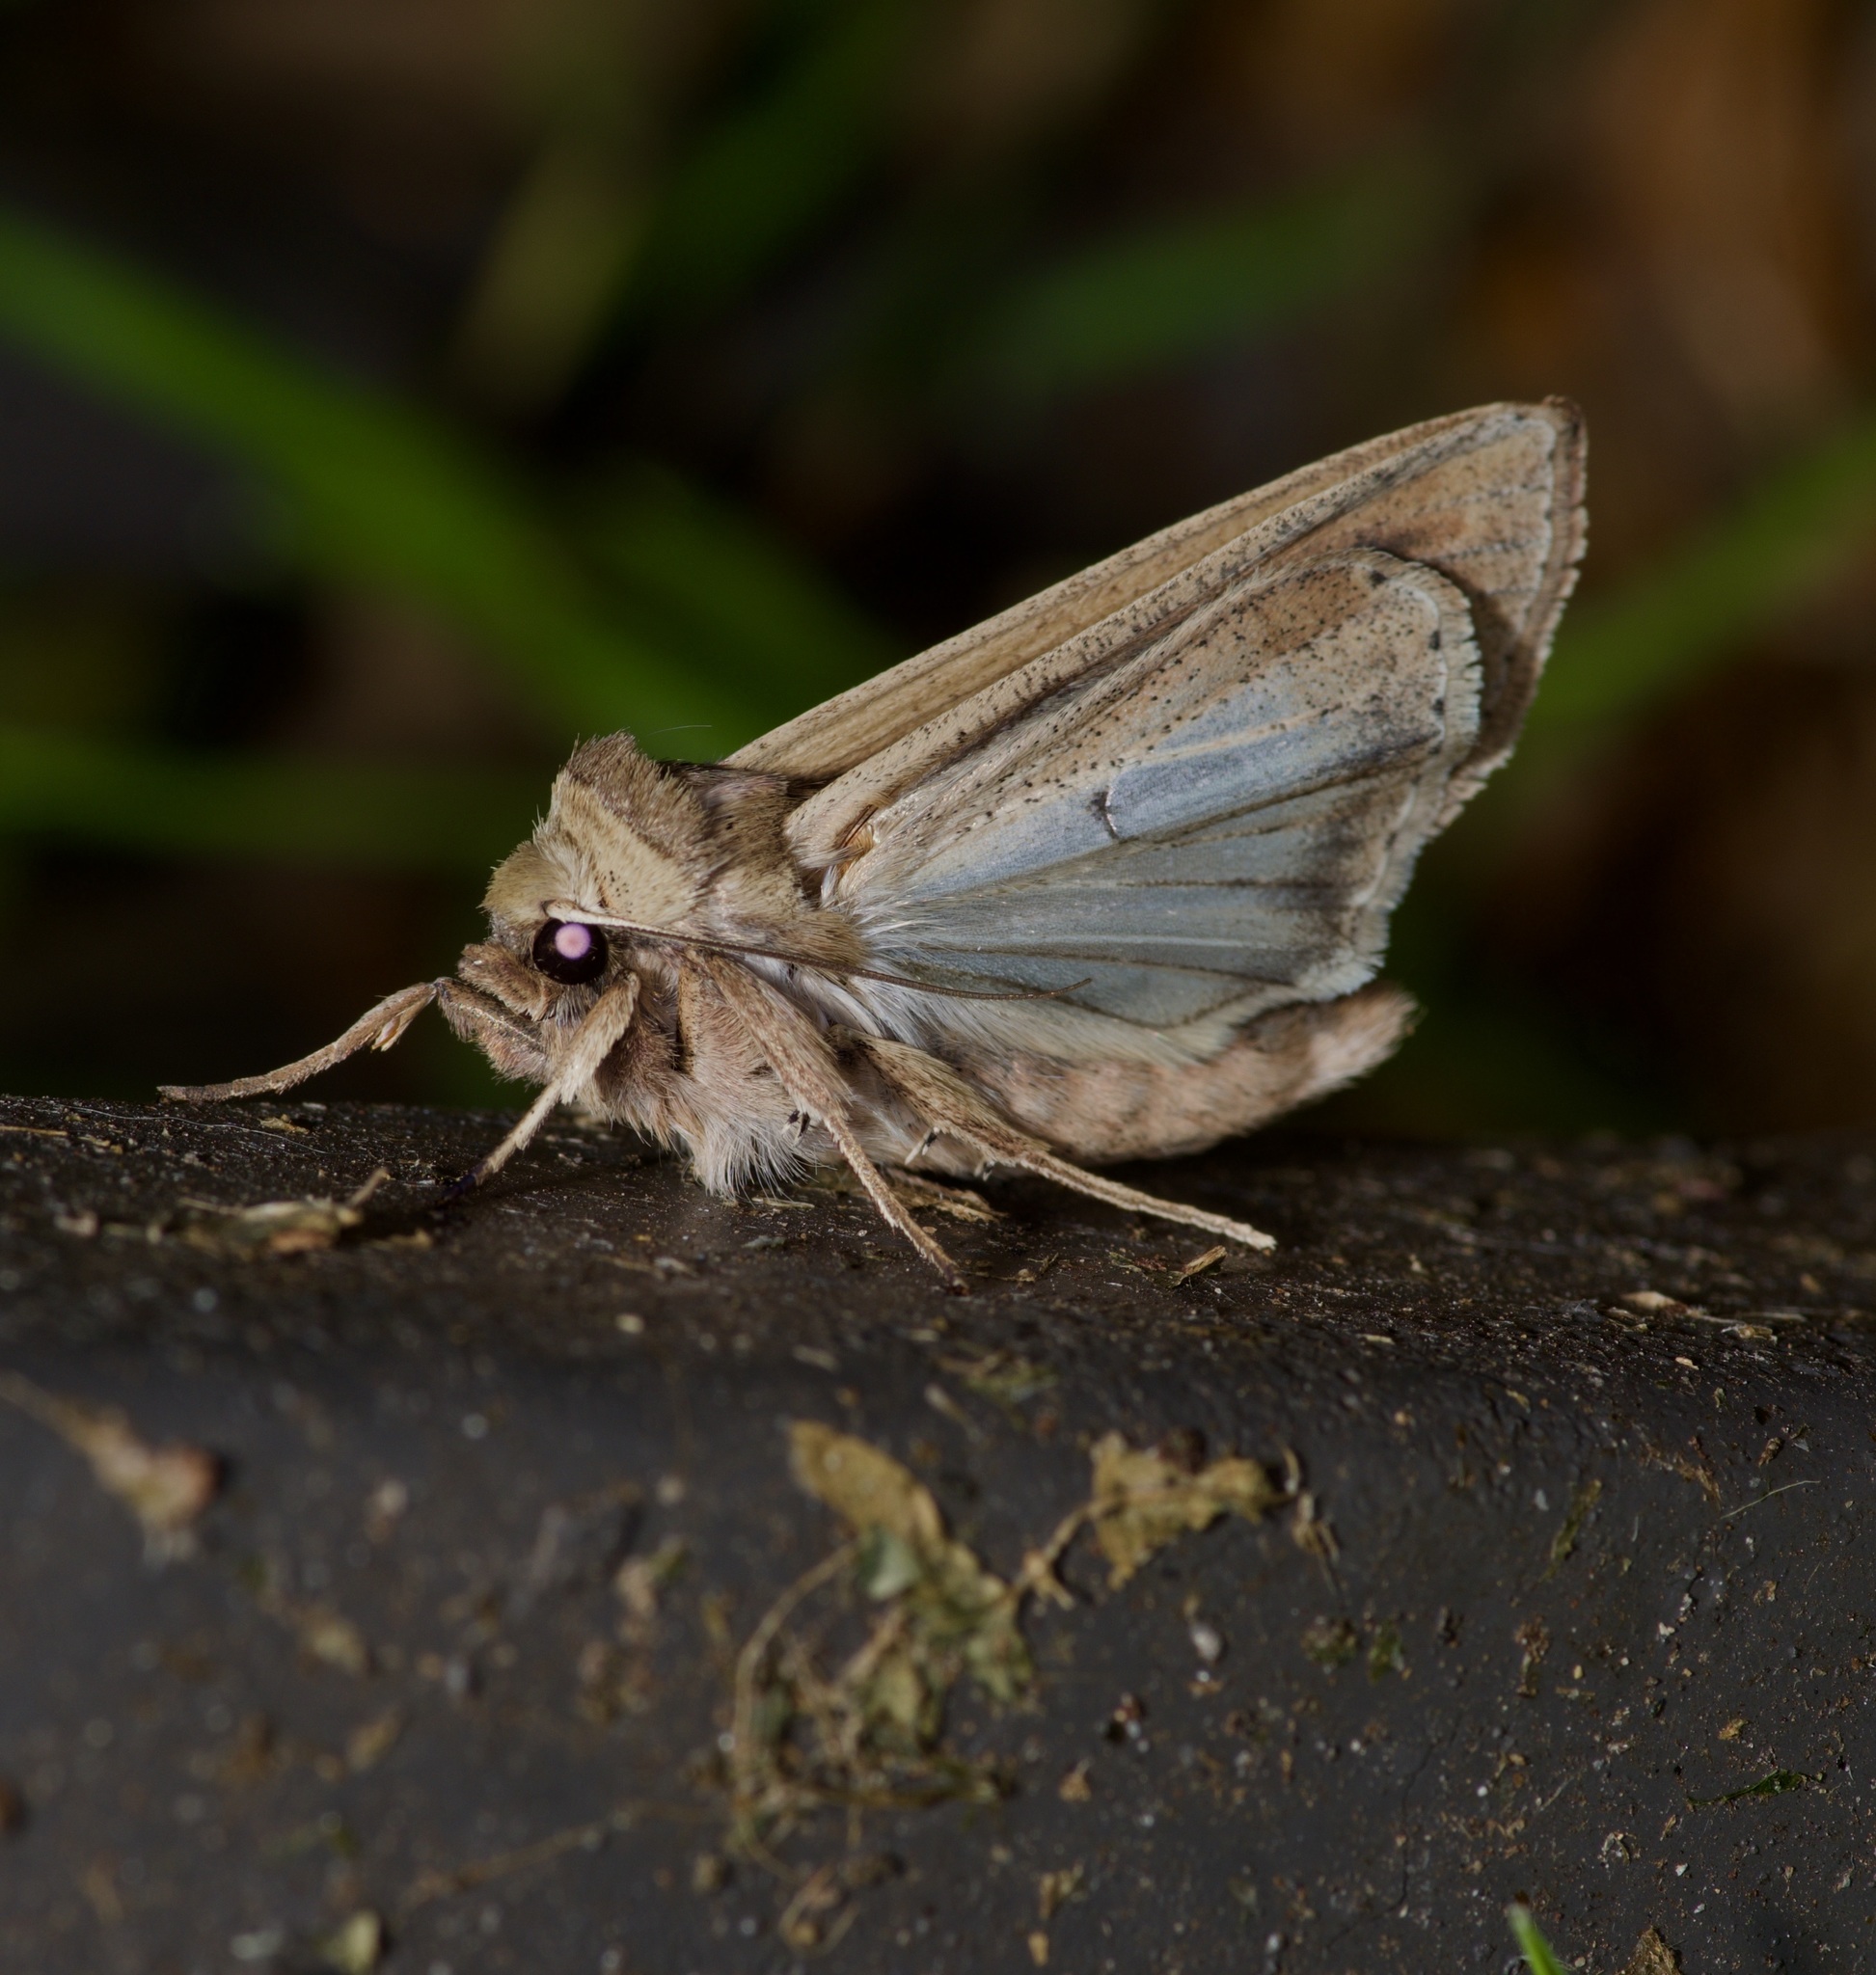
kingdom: Animalia
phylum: Arthropoda
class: Insecta
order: Lepidoptera
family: Noctuidae
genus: Mythimna
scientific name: Mythimna unipuncta
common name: White-speck
